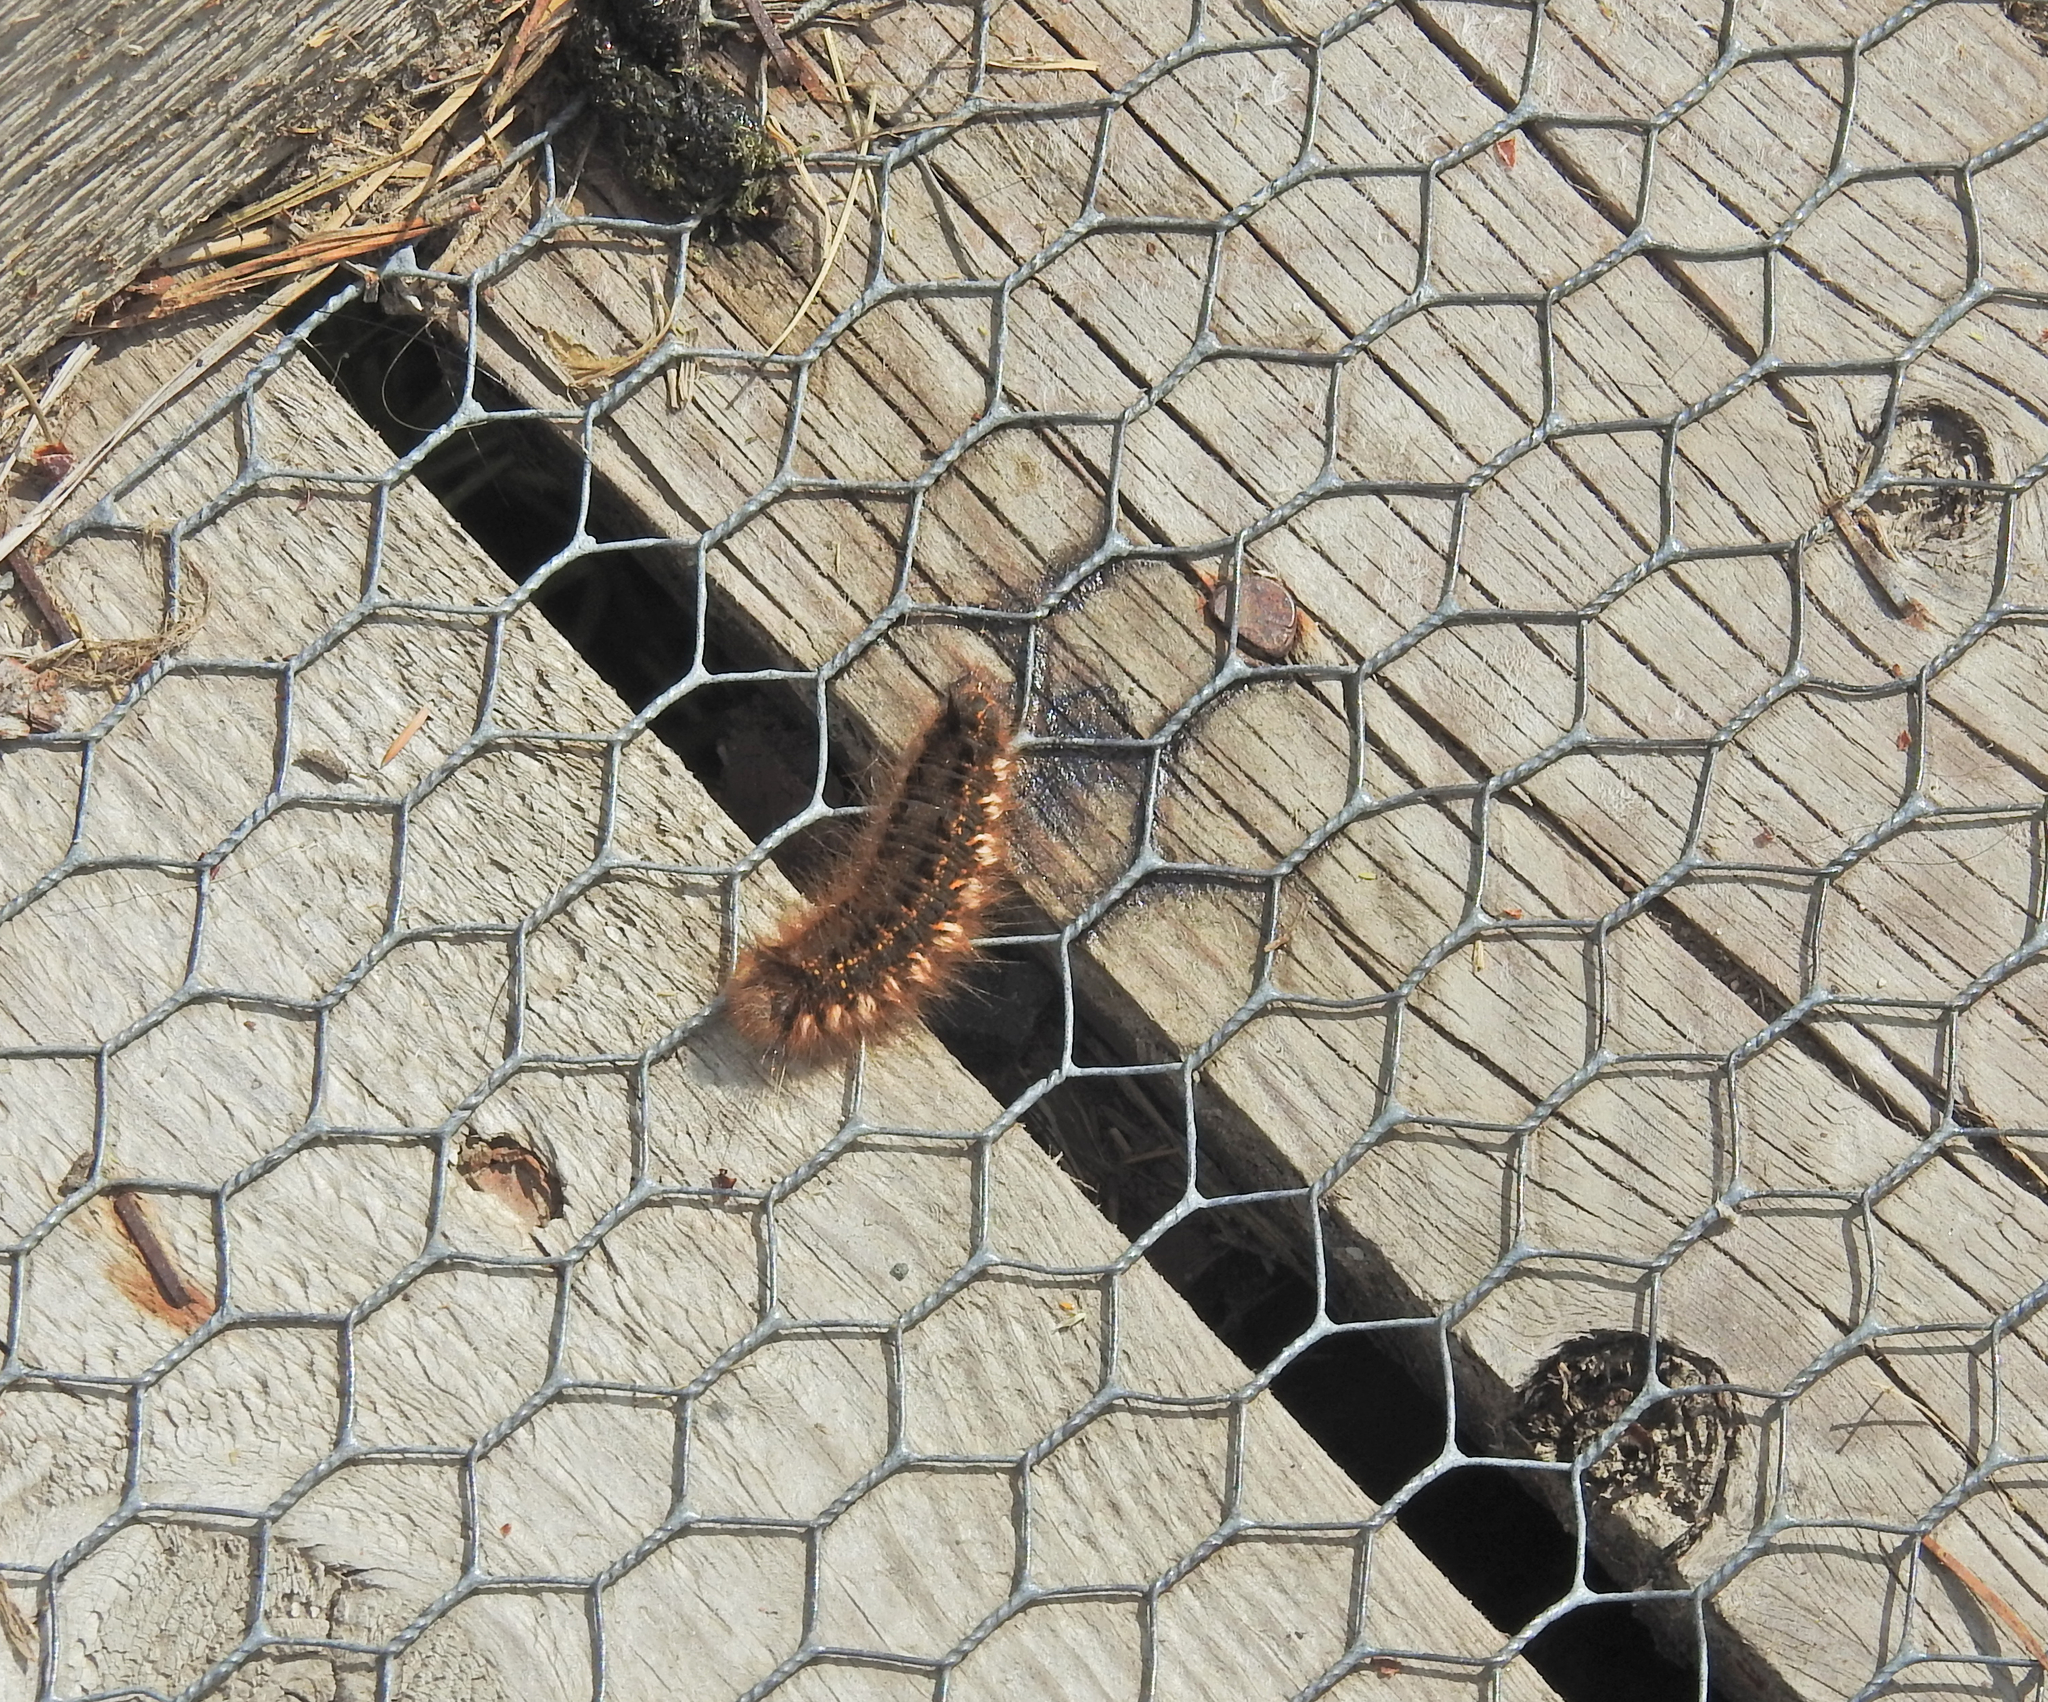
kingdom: Animalia
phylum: Arthropoda
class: Insecta
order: Lepidoptera
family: Lasiocampidae
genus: Euthrix
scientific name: Euthrix potatoria
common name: Drinker
